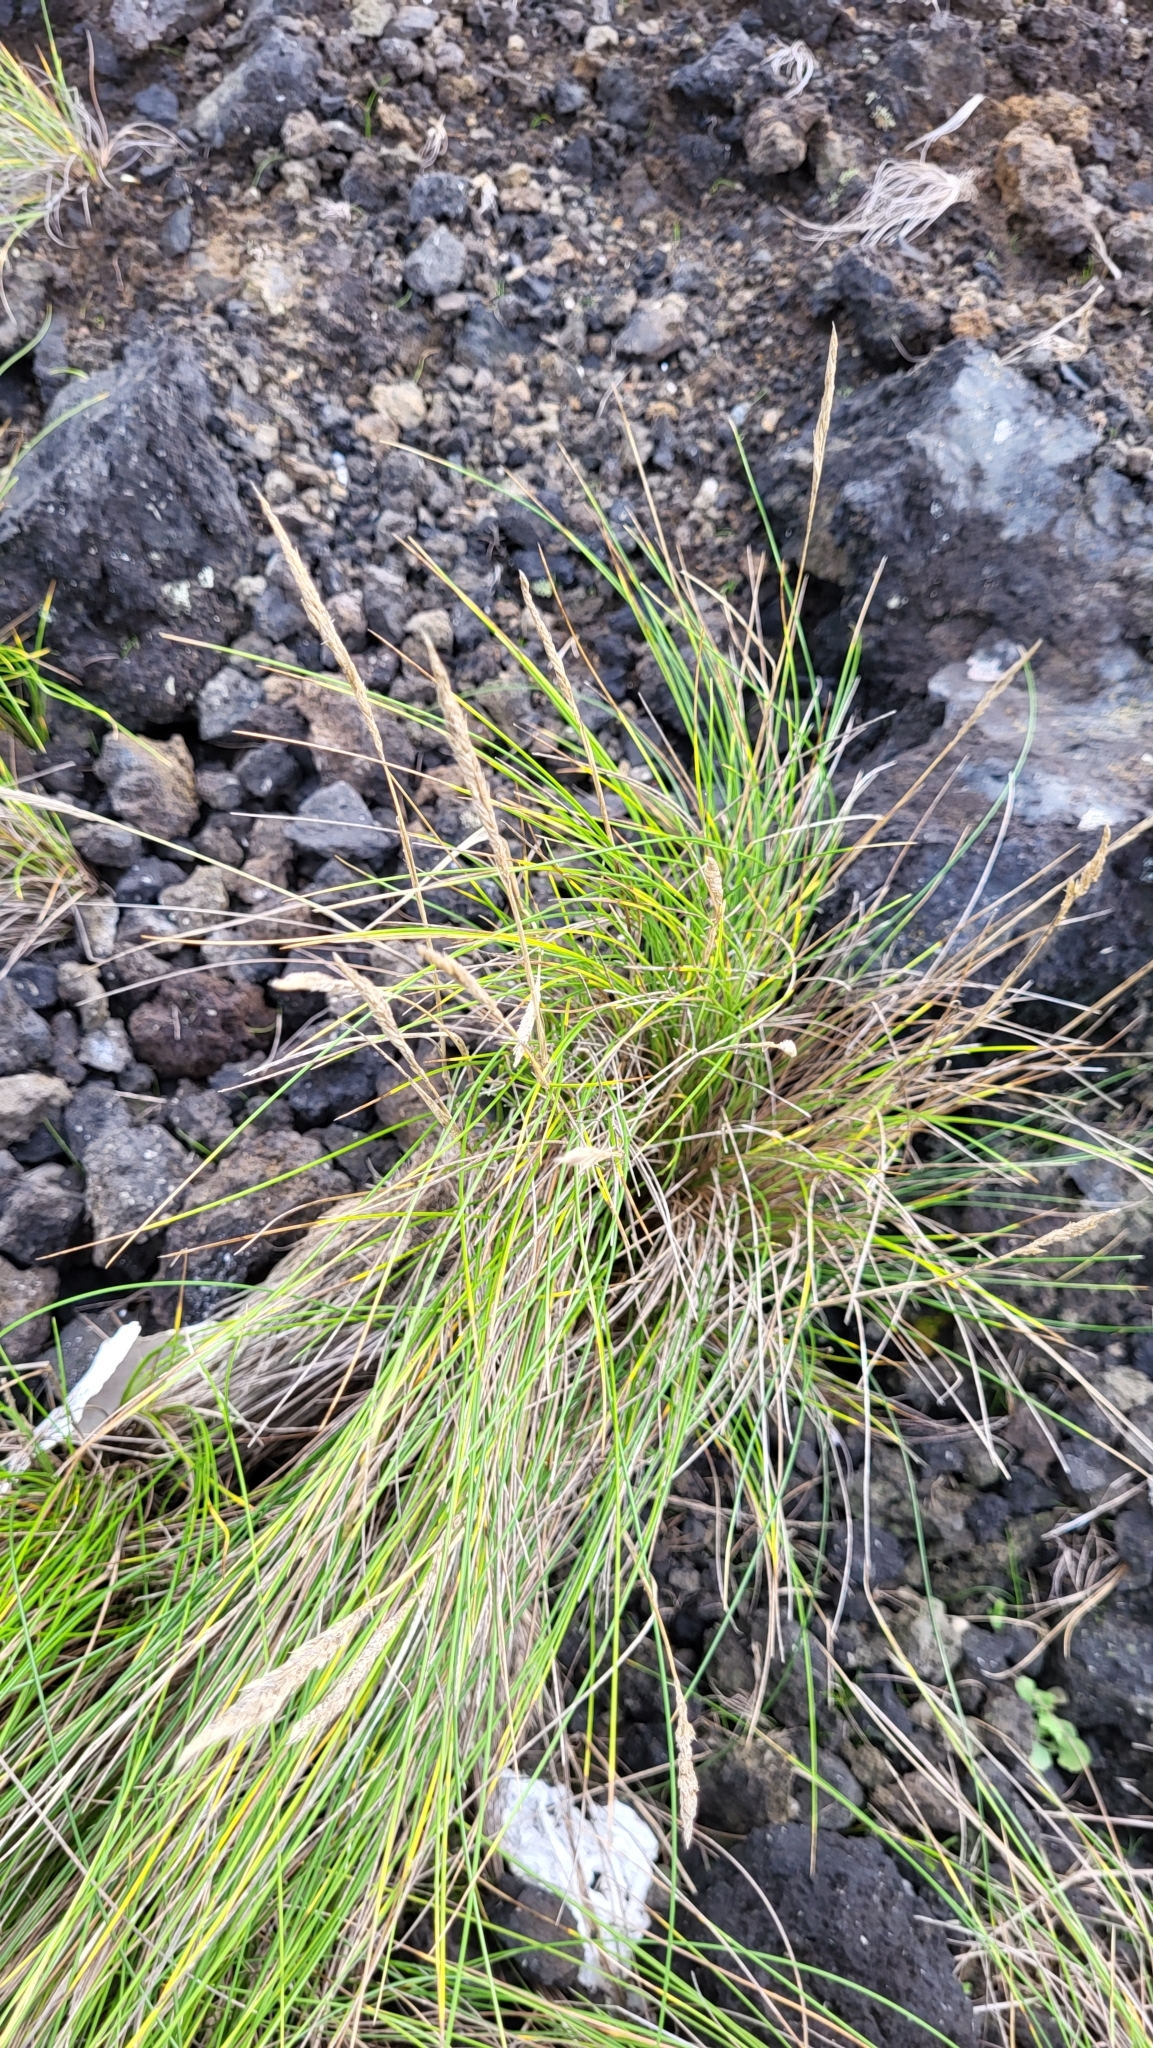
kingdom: Plantae
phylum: Tracheophyta
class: Liliopsida
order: Poales
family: Poaceae
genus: Festuca
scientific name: Festuca petraea
